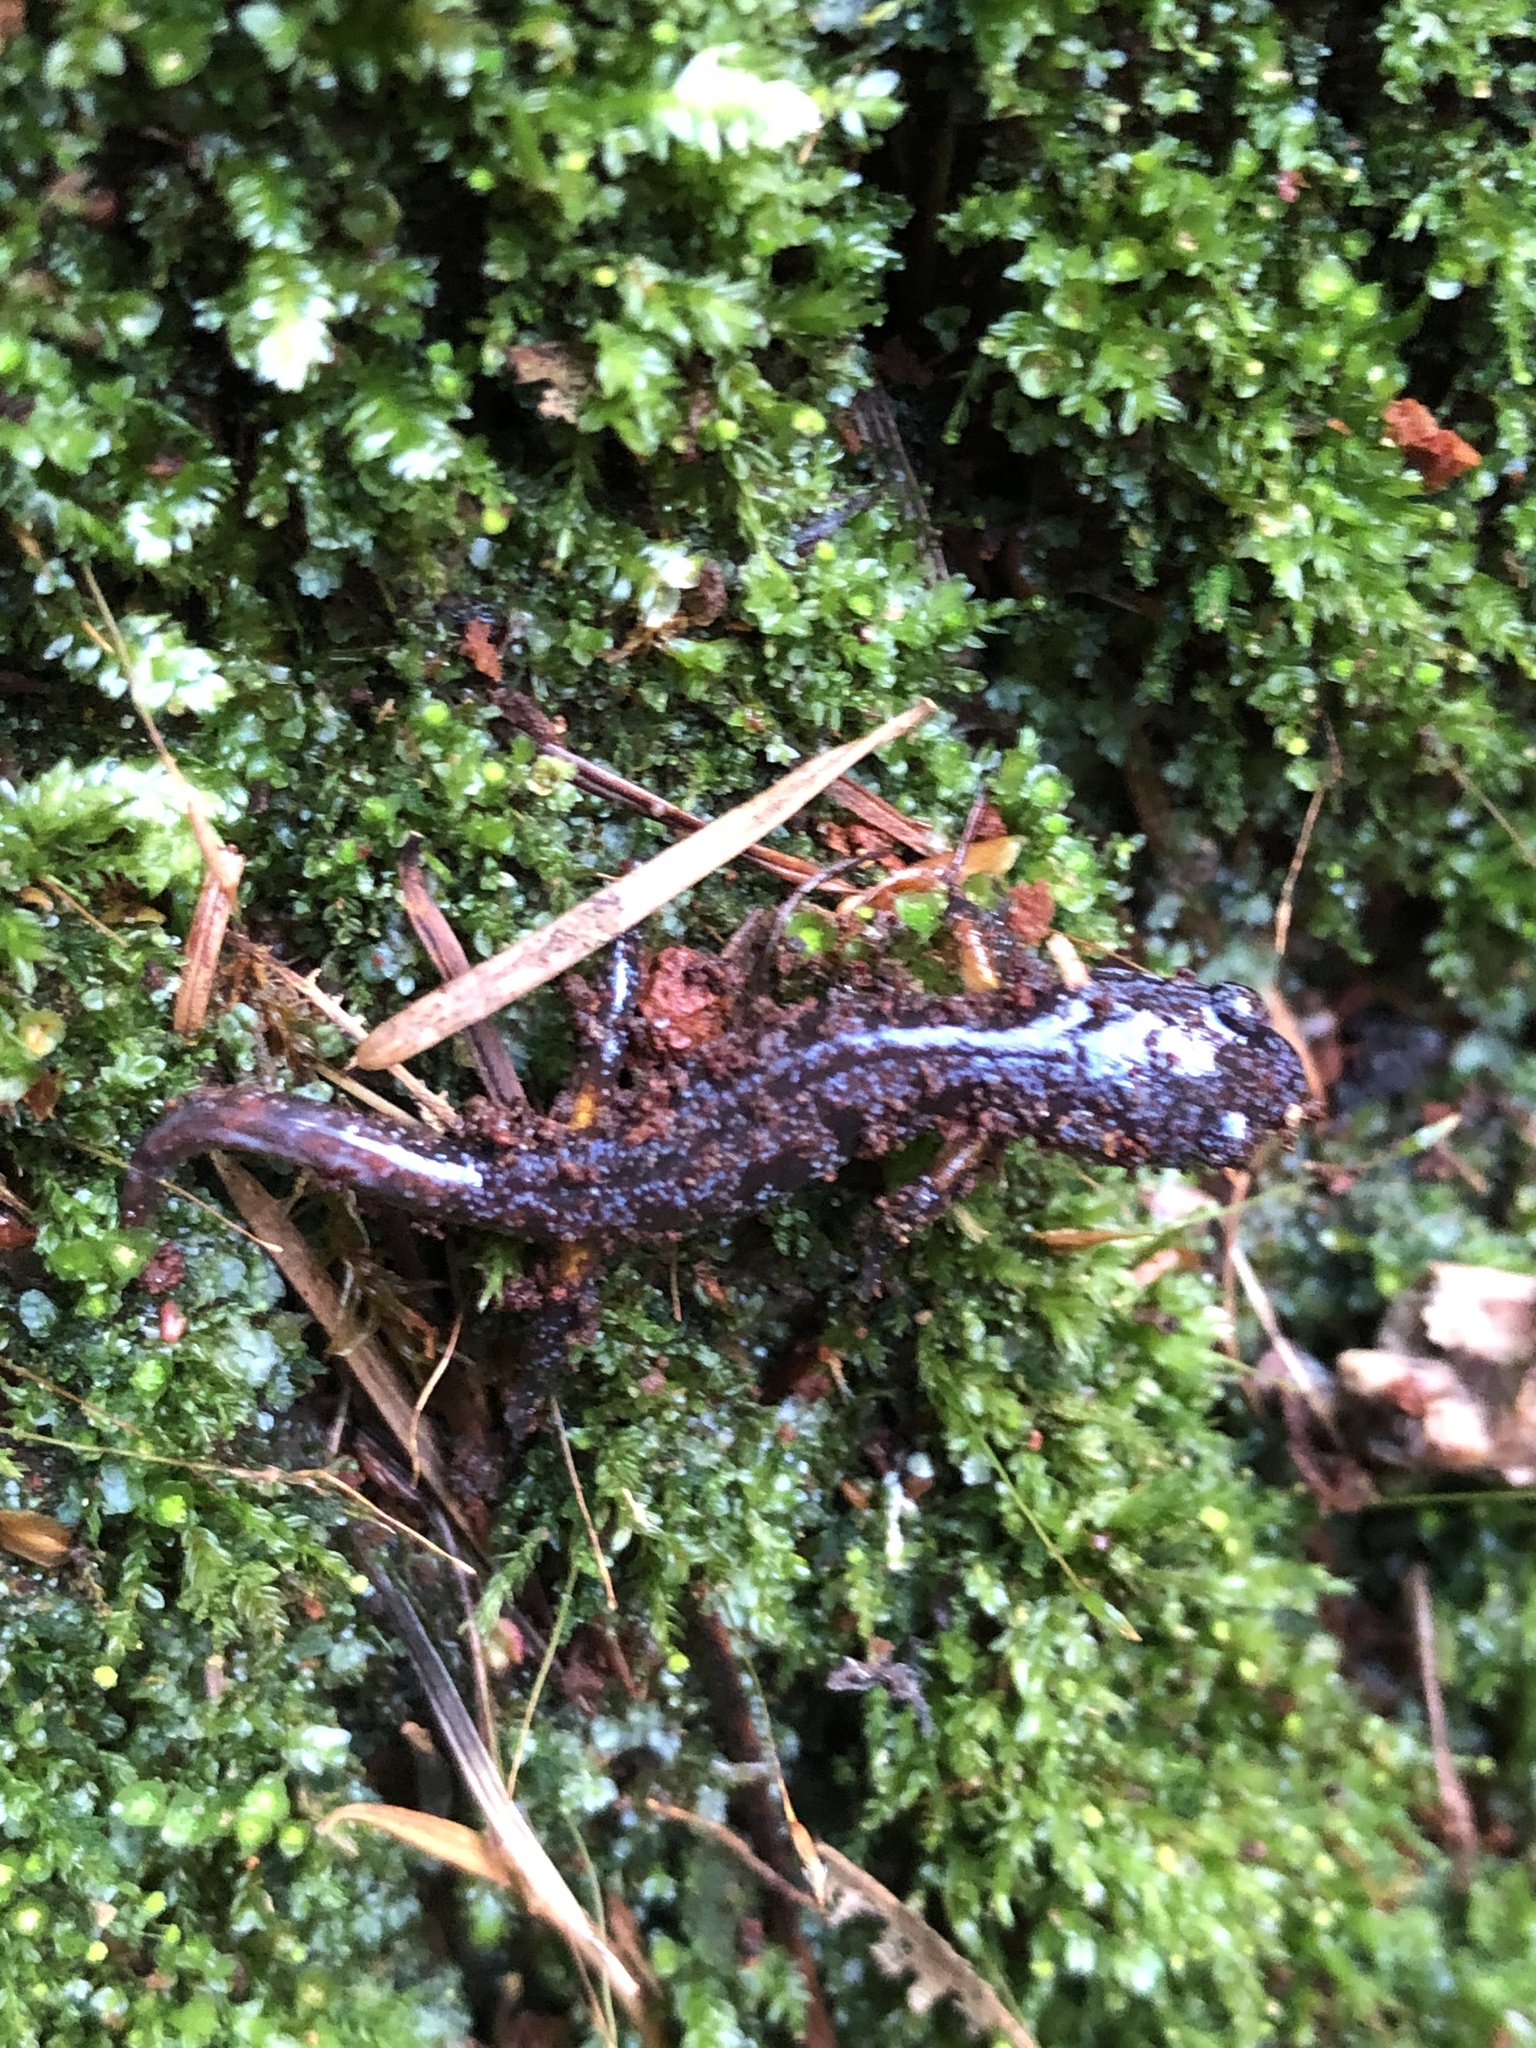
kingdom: Animalia
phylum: Chordata
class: Amphibia
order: Caudata
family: Plethodontidae
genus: Ensatina
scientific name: Ensatina eschscholtzii
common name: Ensatina
